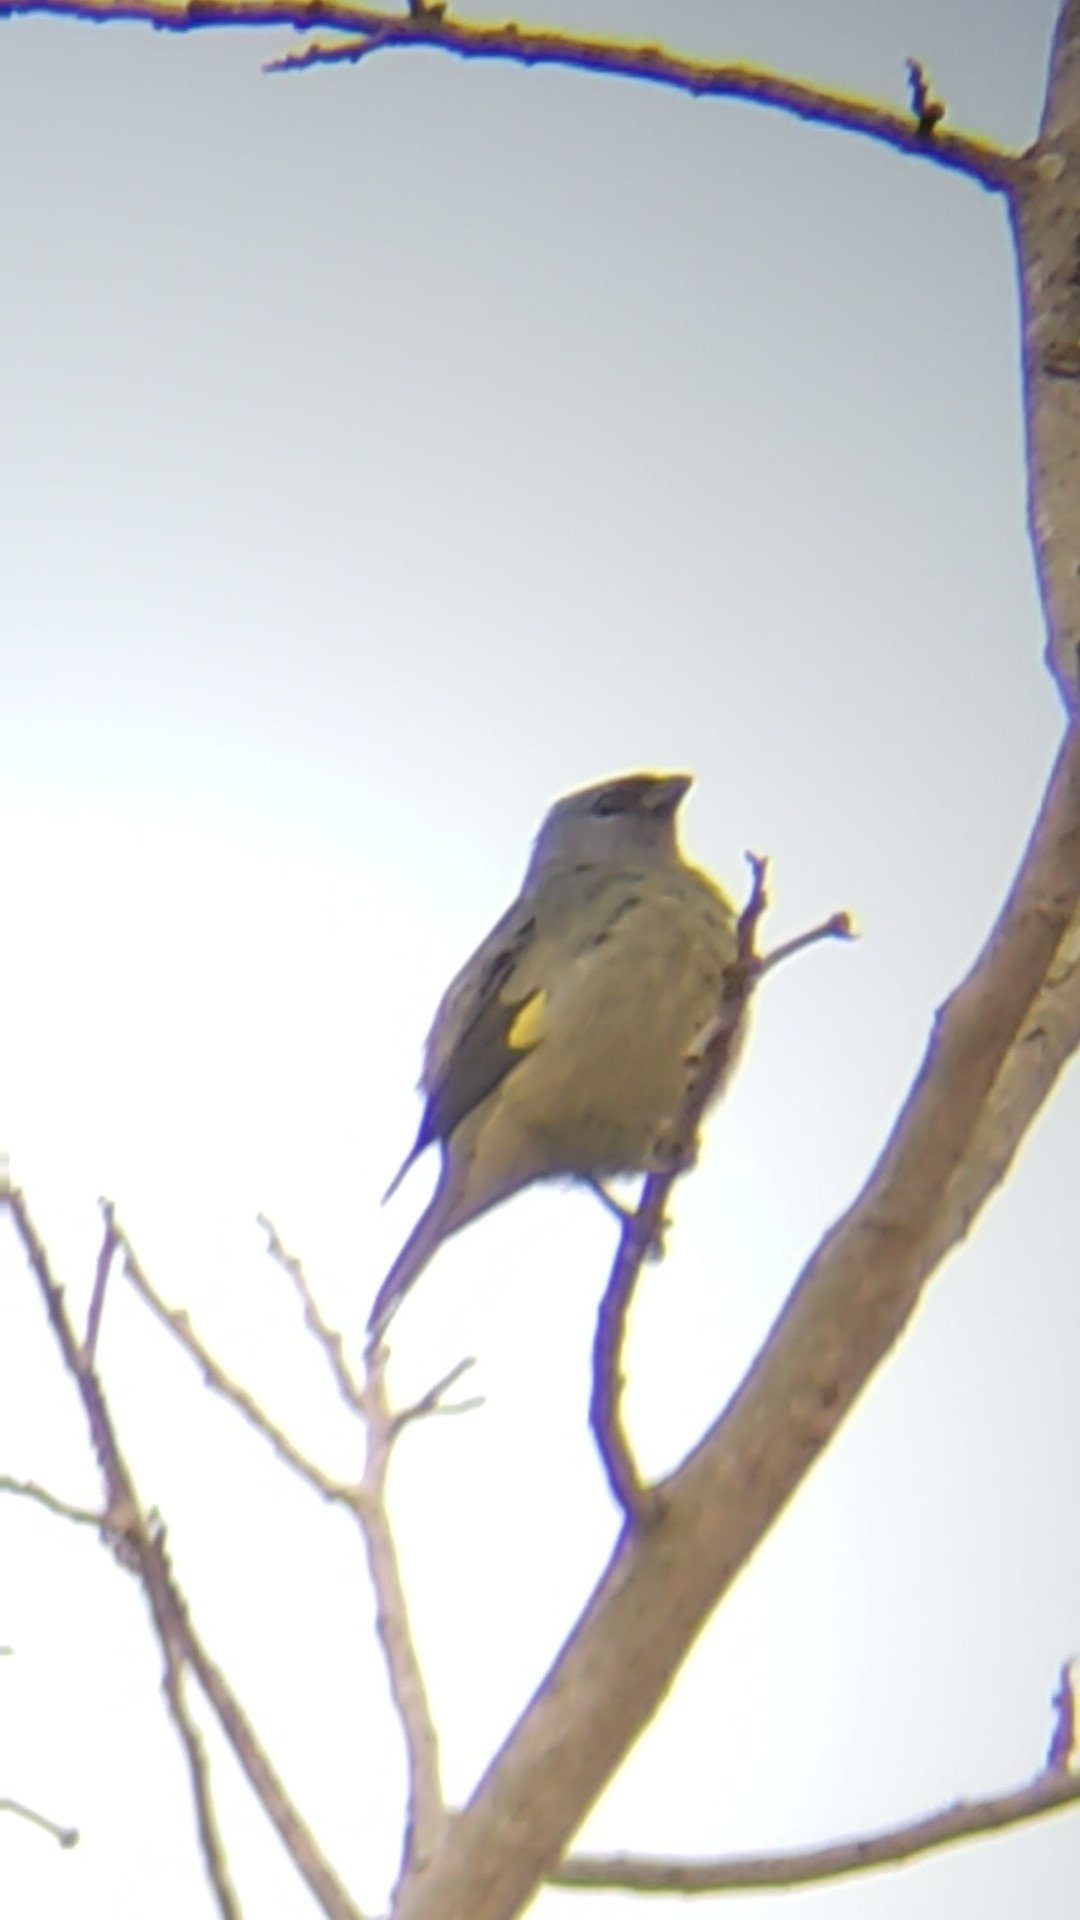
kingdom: Animalia
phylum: Chordata
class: Aves
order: Passeriformes
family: Thraupidae
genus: Thraupis
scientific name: Thraupis abbas
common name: Yellow-winged tanager
